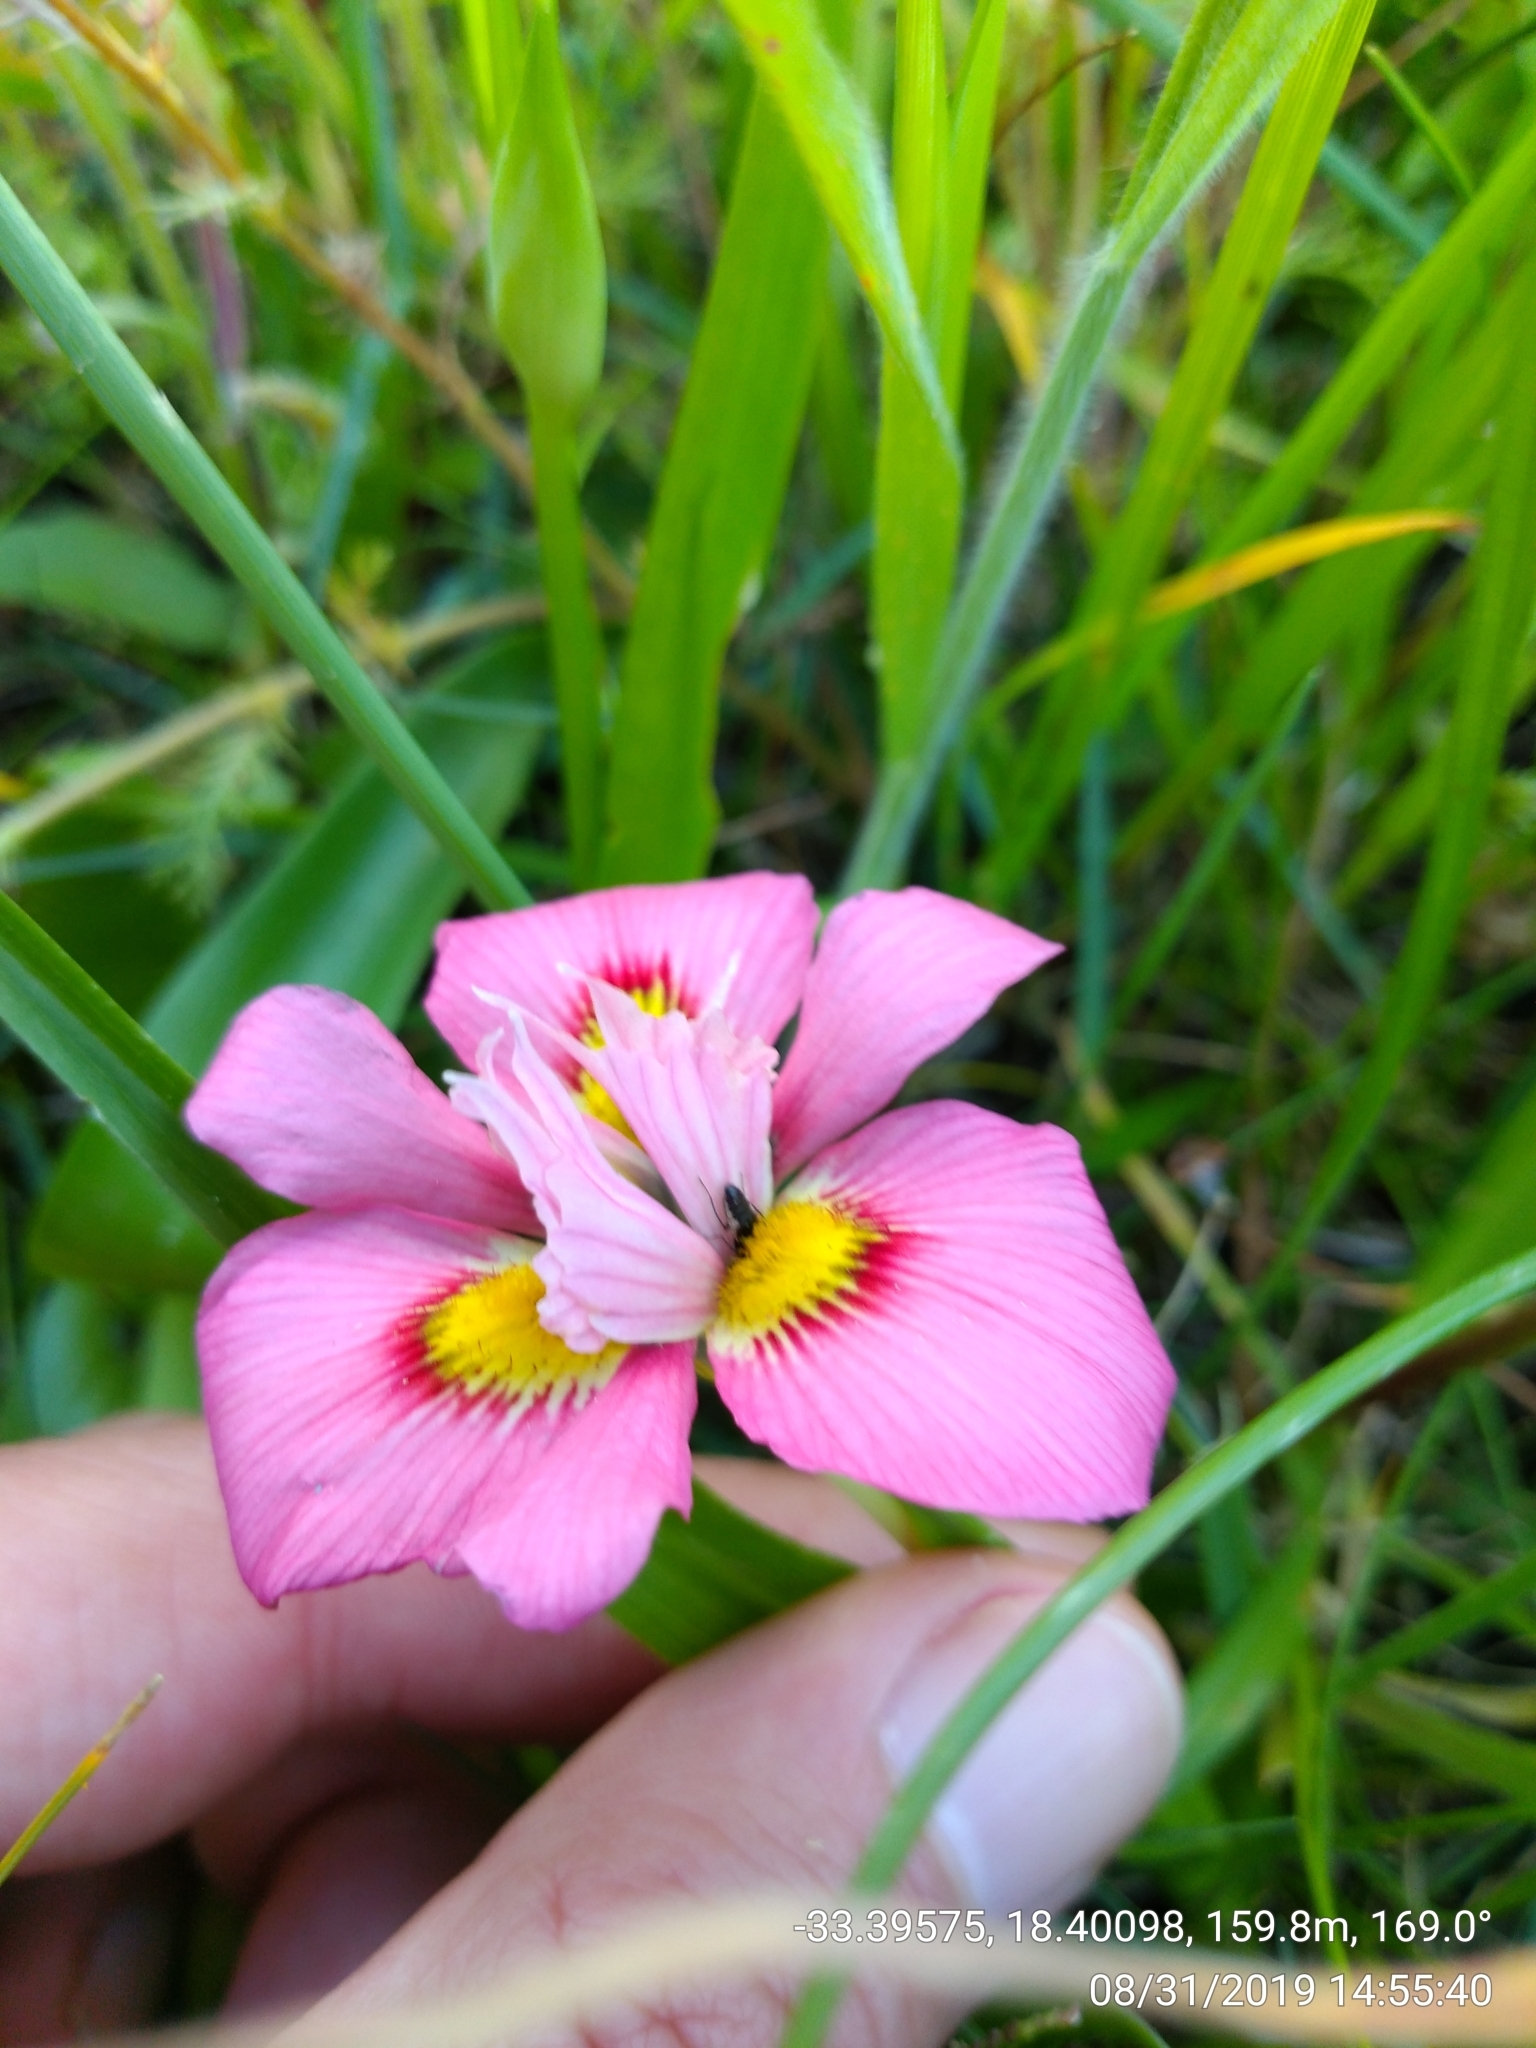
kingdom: Plantae
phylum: Tracheophyta
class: Liliopsida
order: Asparagales
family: Iridaceae
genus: Moraea
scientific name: Moraea tricolor
